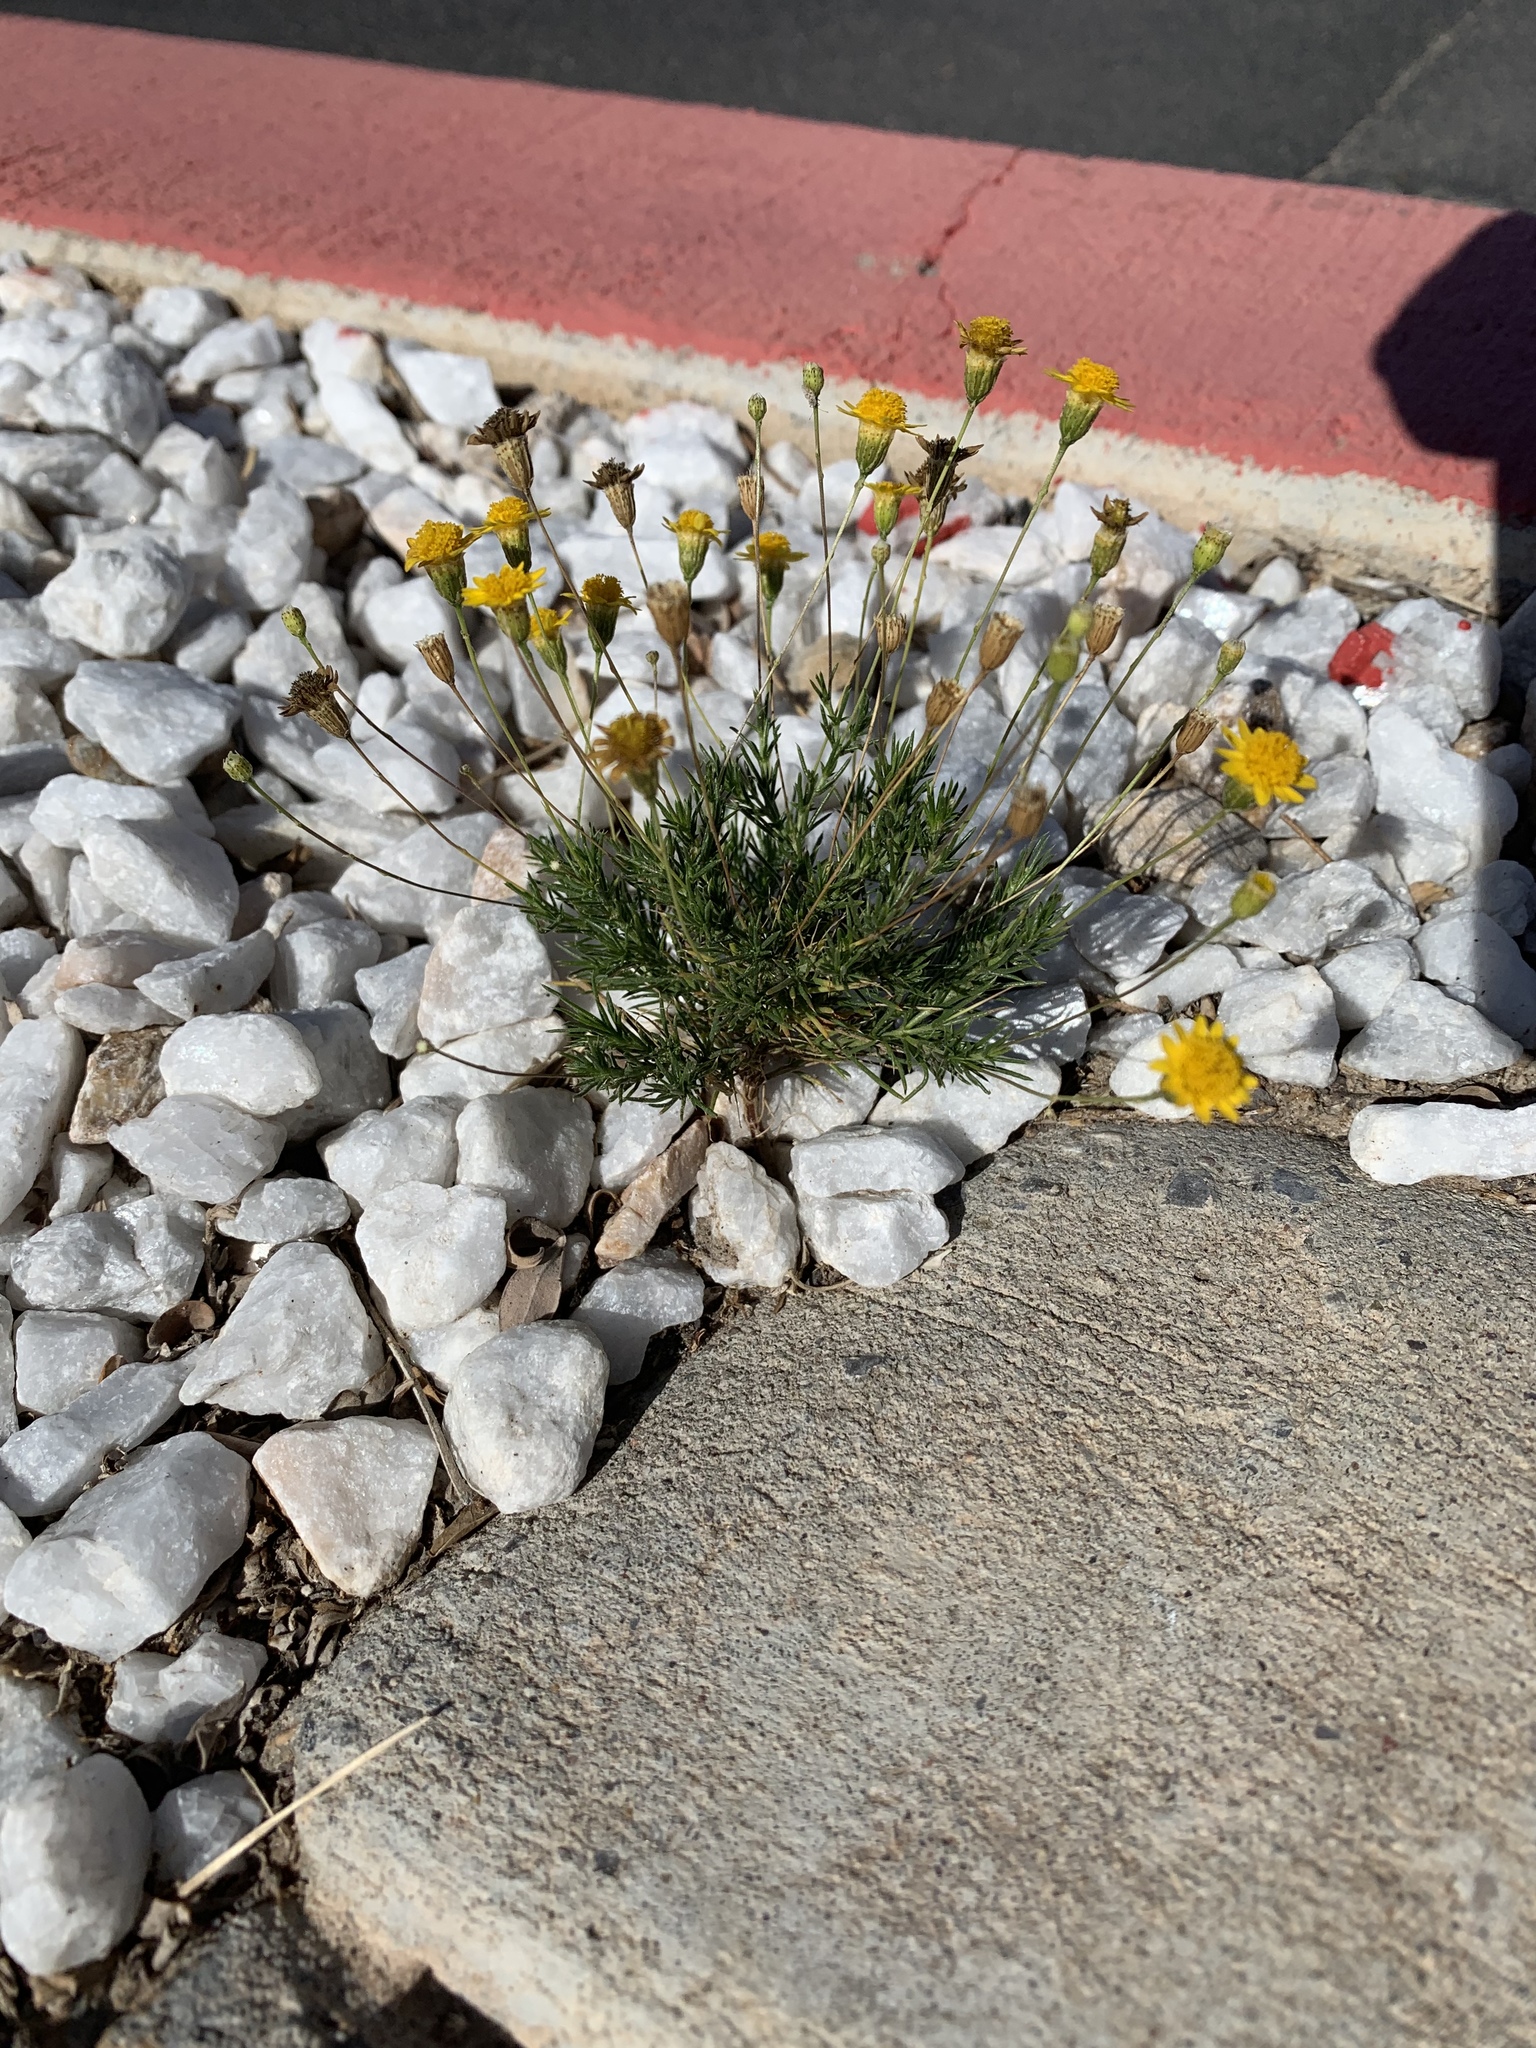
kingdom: Plantae
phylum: Tracheophyta
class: Magnoliopsida
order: Asterales
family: Asteraceae
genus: Thymophylla
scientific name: Thymophylla pentachaeta
